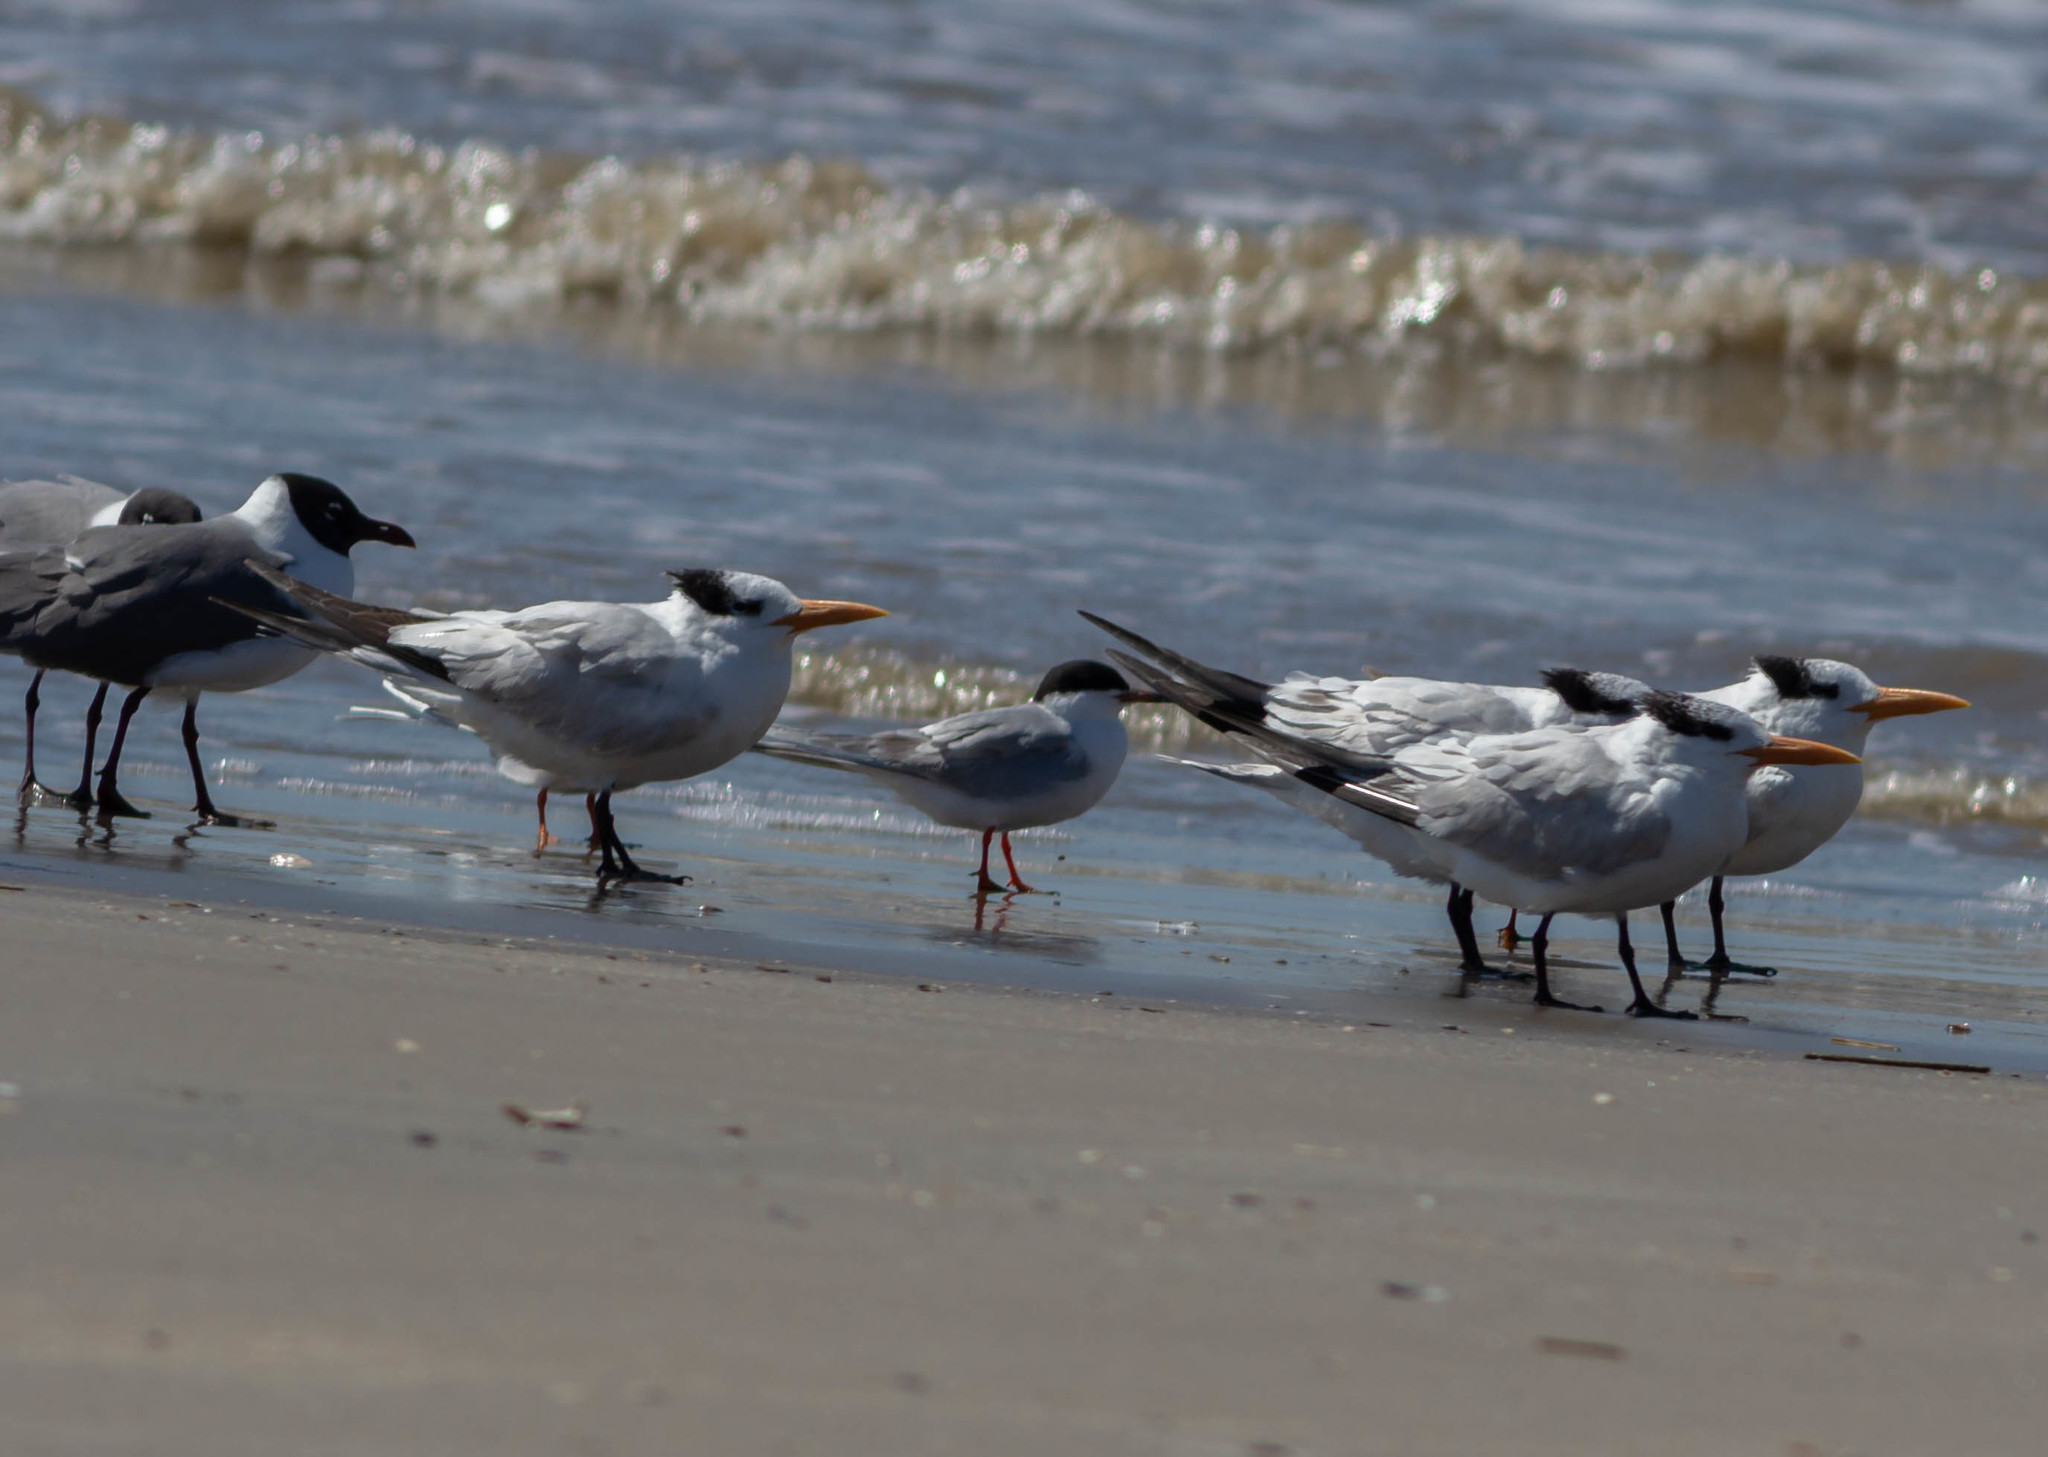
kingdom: Animalia
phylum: Chordata
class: Aves
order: Charadriiformes
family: Laridae
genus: Thalasseus
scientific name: Thalasseus maximus
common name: Royal tern
